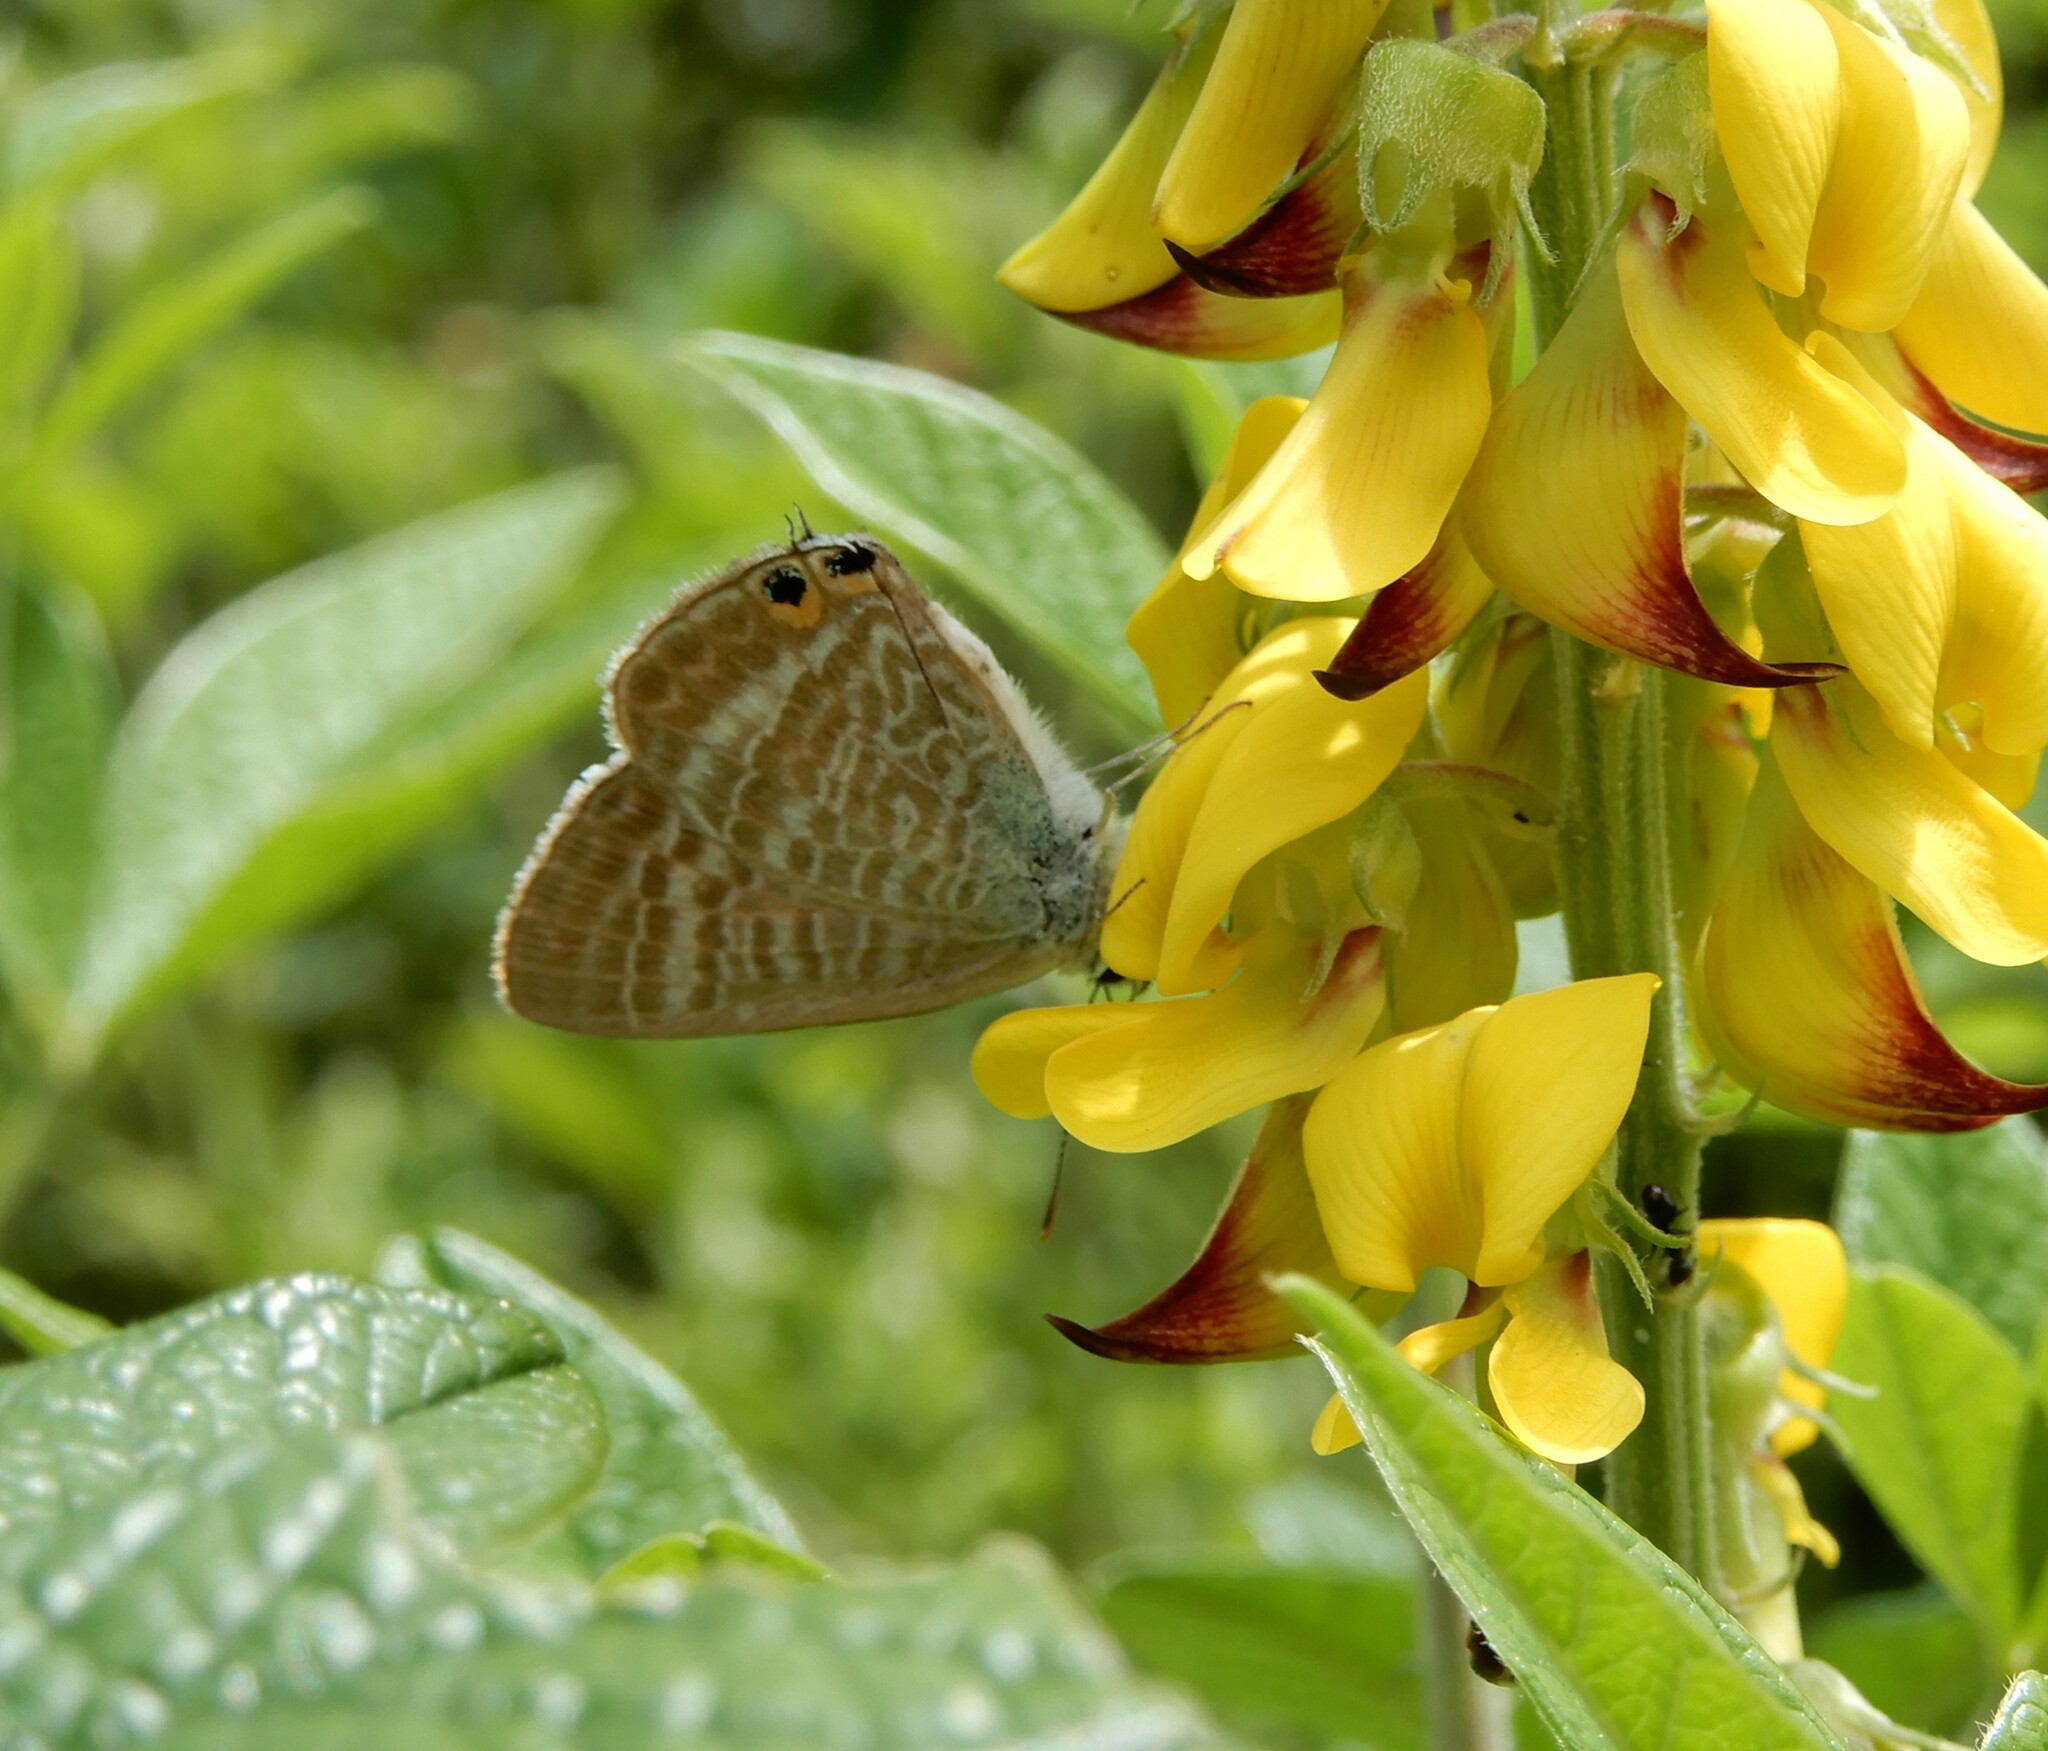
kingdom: Animalia
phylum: Arthropoda
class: Insecta
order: Lepidoptera
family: Lycaenidae
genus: Lampides
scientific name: Lampides boeticus
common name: Long-tailed blue
